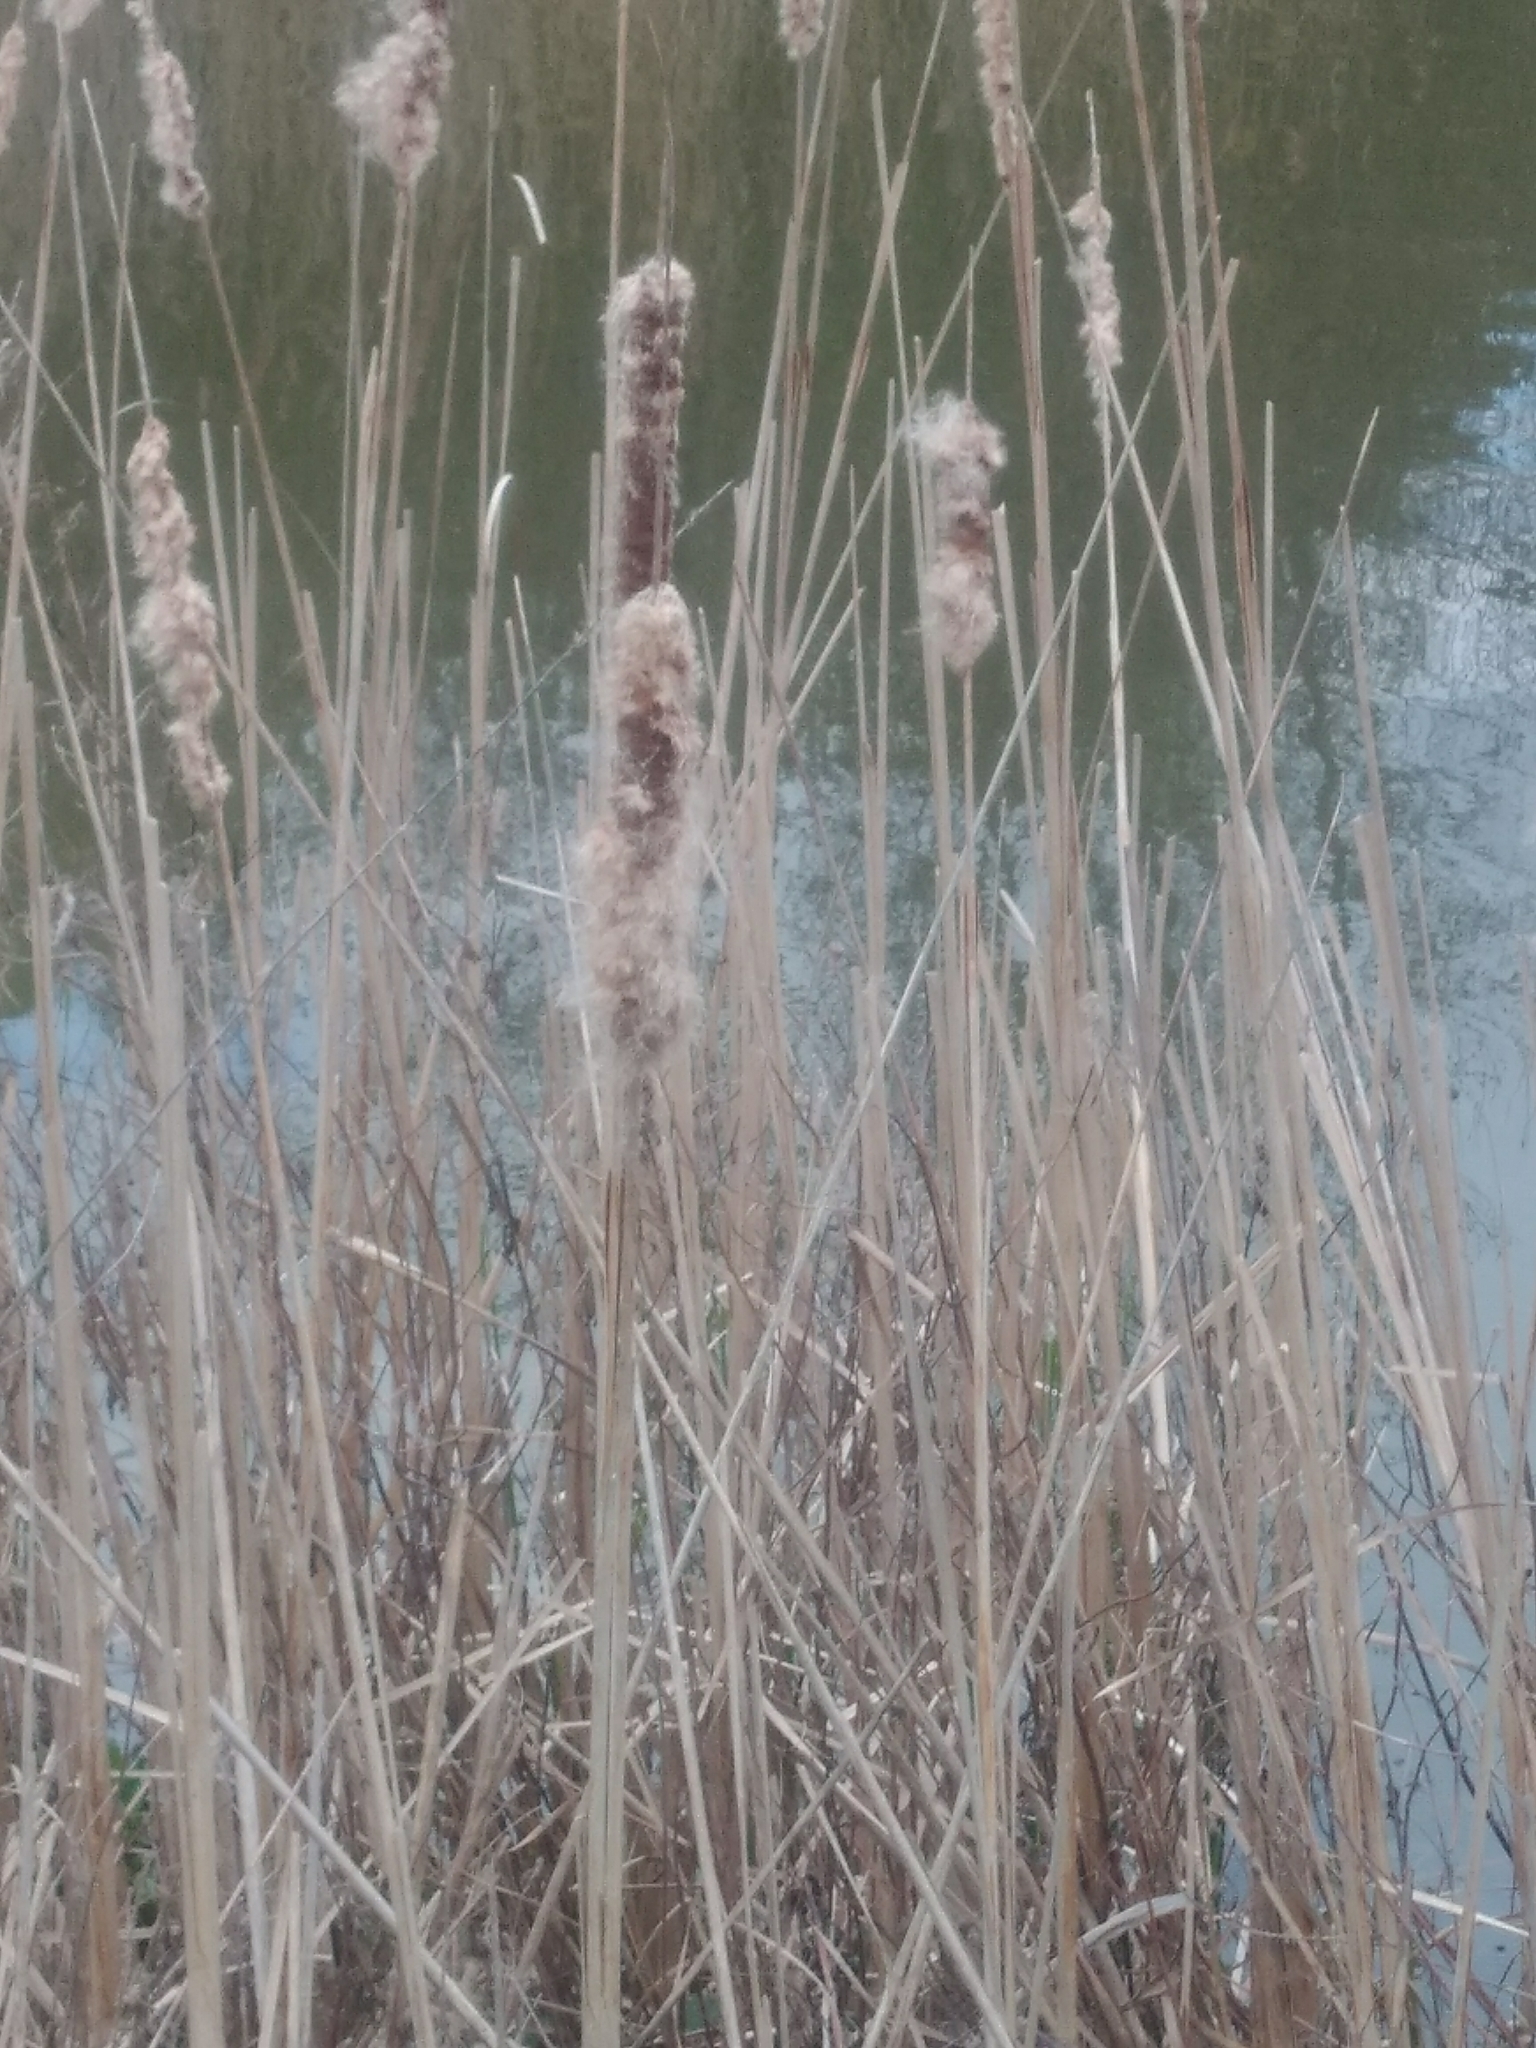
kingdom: Plantae
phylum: Tracheophyta
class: Liliopsida
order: Poales
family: Typhaceae
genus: Typha
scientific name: Typha latifolia
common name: Broadleaf cattail
